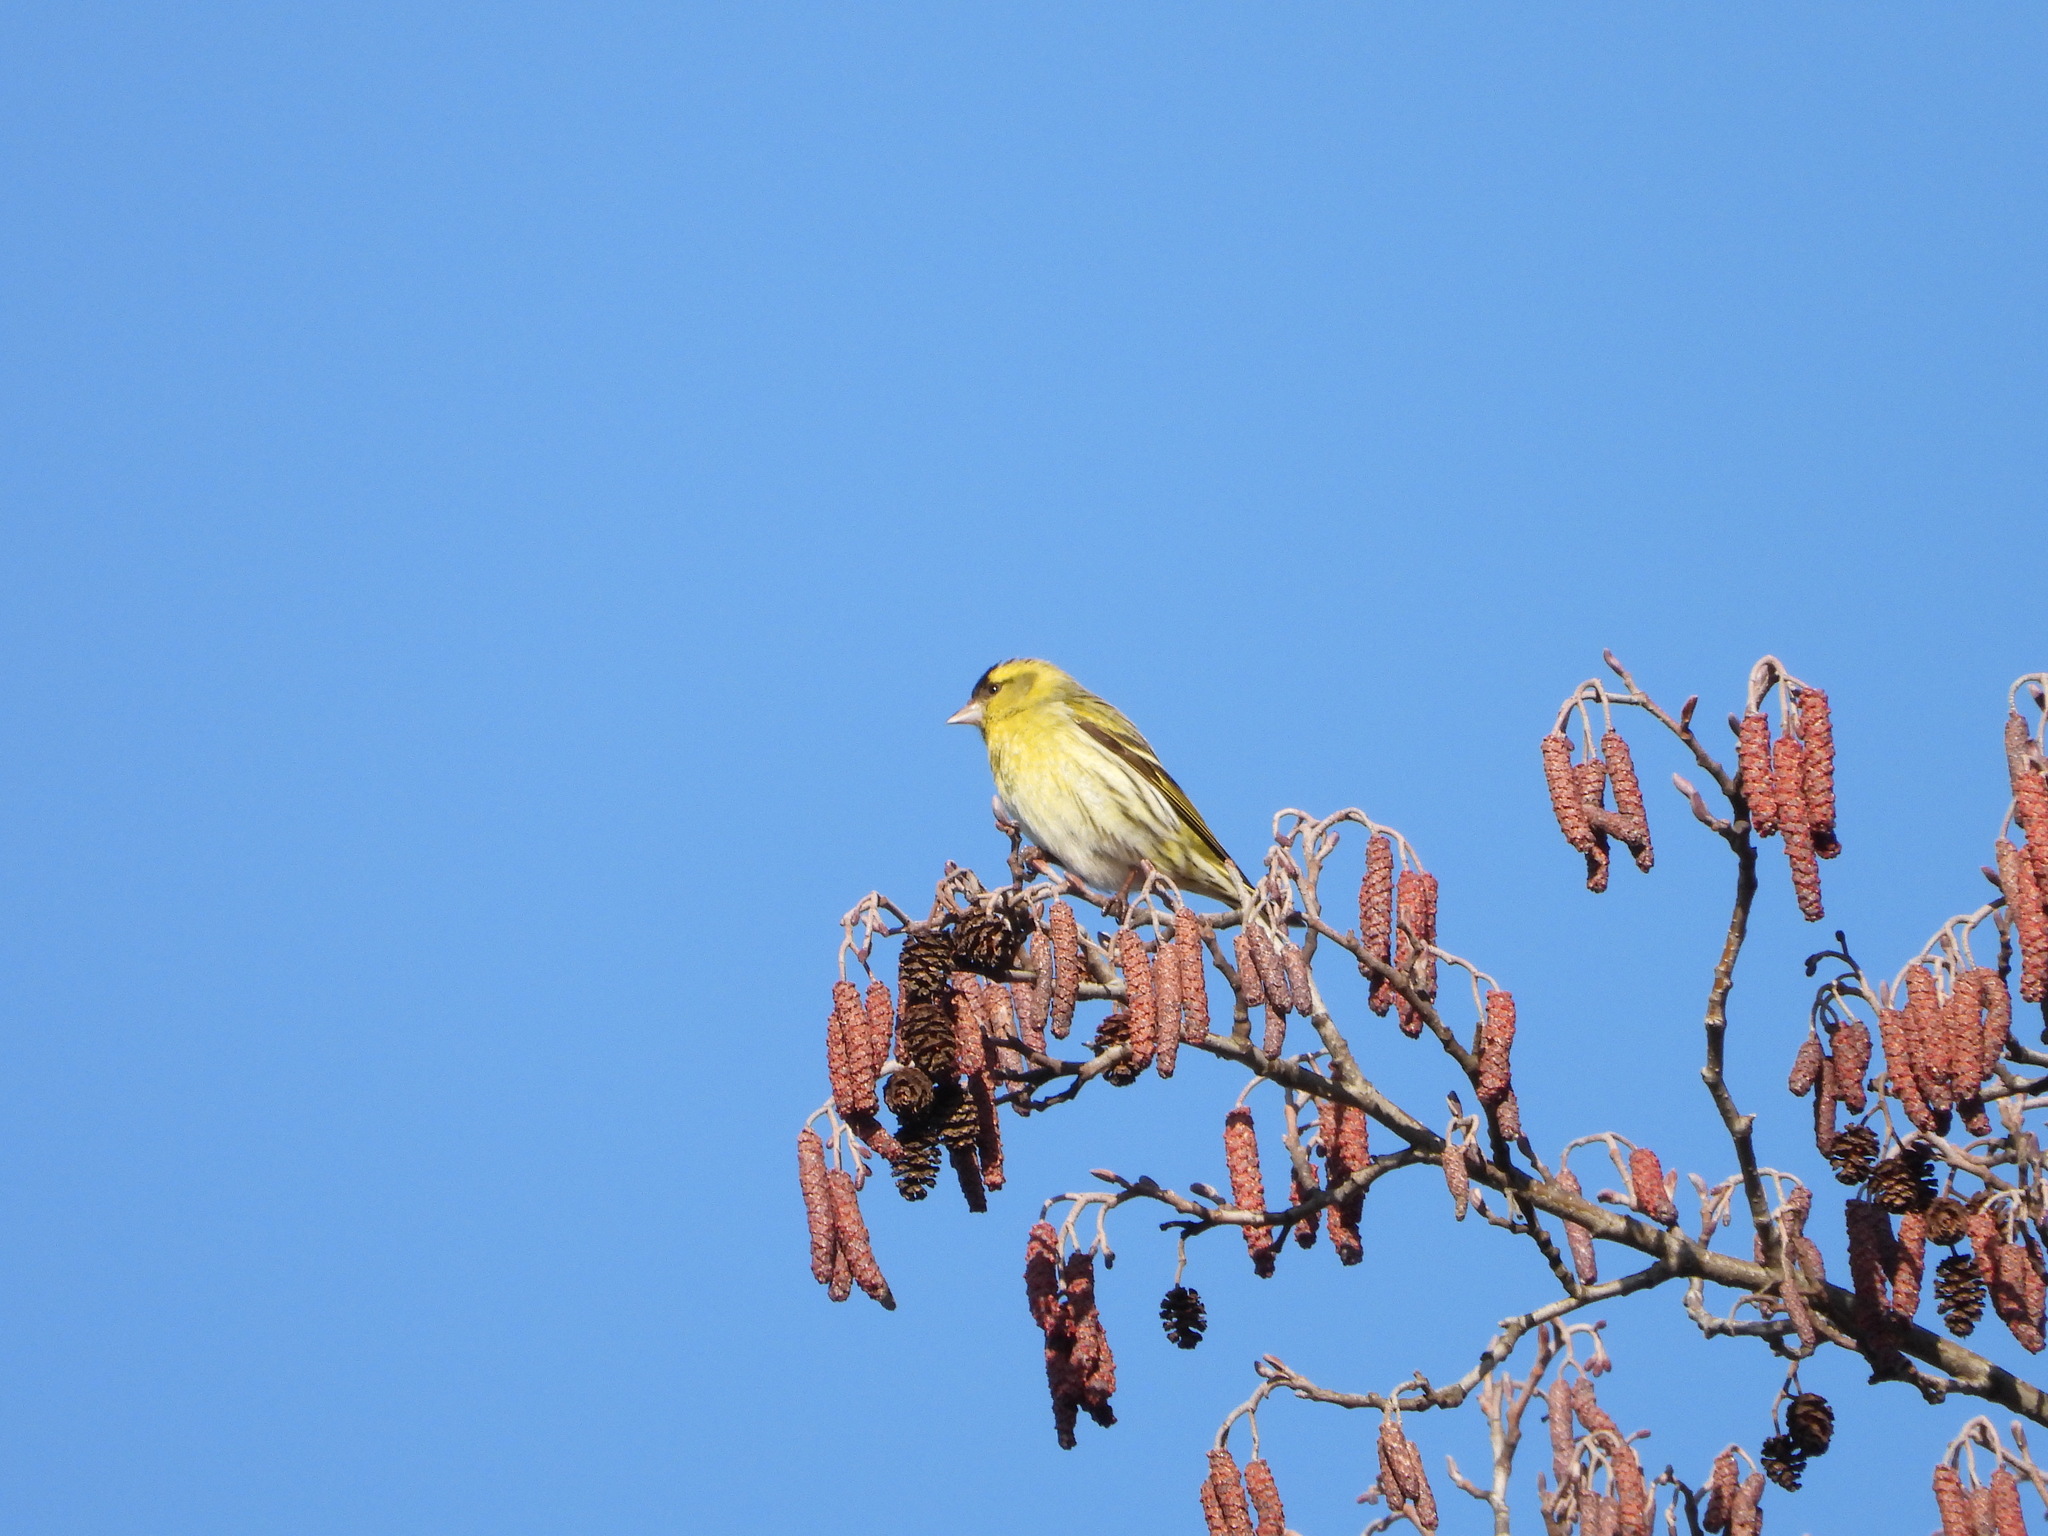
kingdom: Animalia
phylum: Chordata
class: Aves
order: Passeriformes
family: Fringillidae
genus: Spinus
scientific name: Spinus spinus
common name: Eurasian siskin
